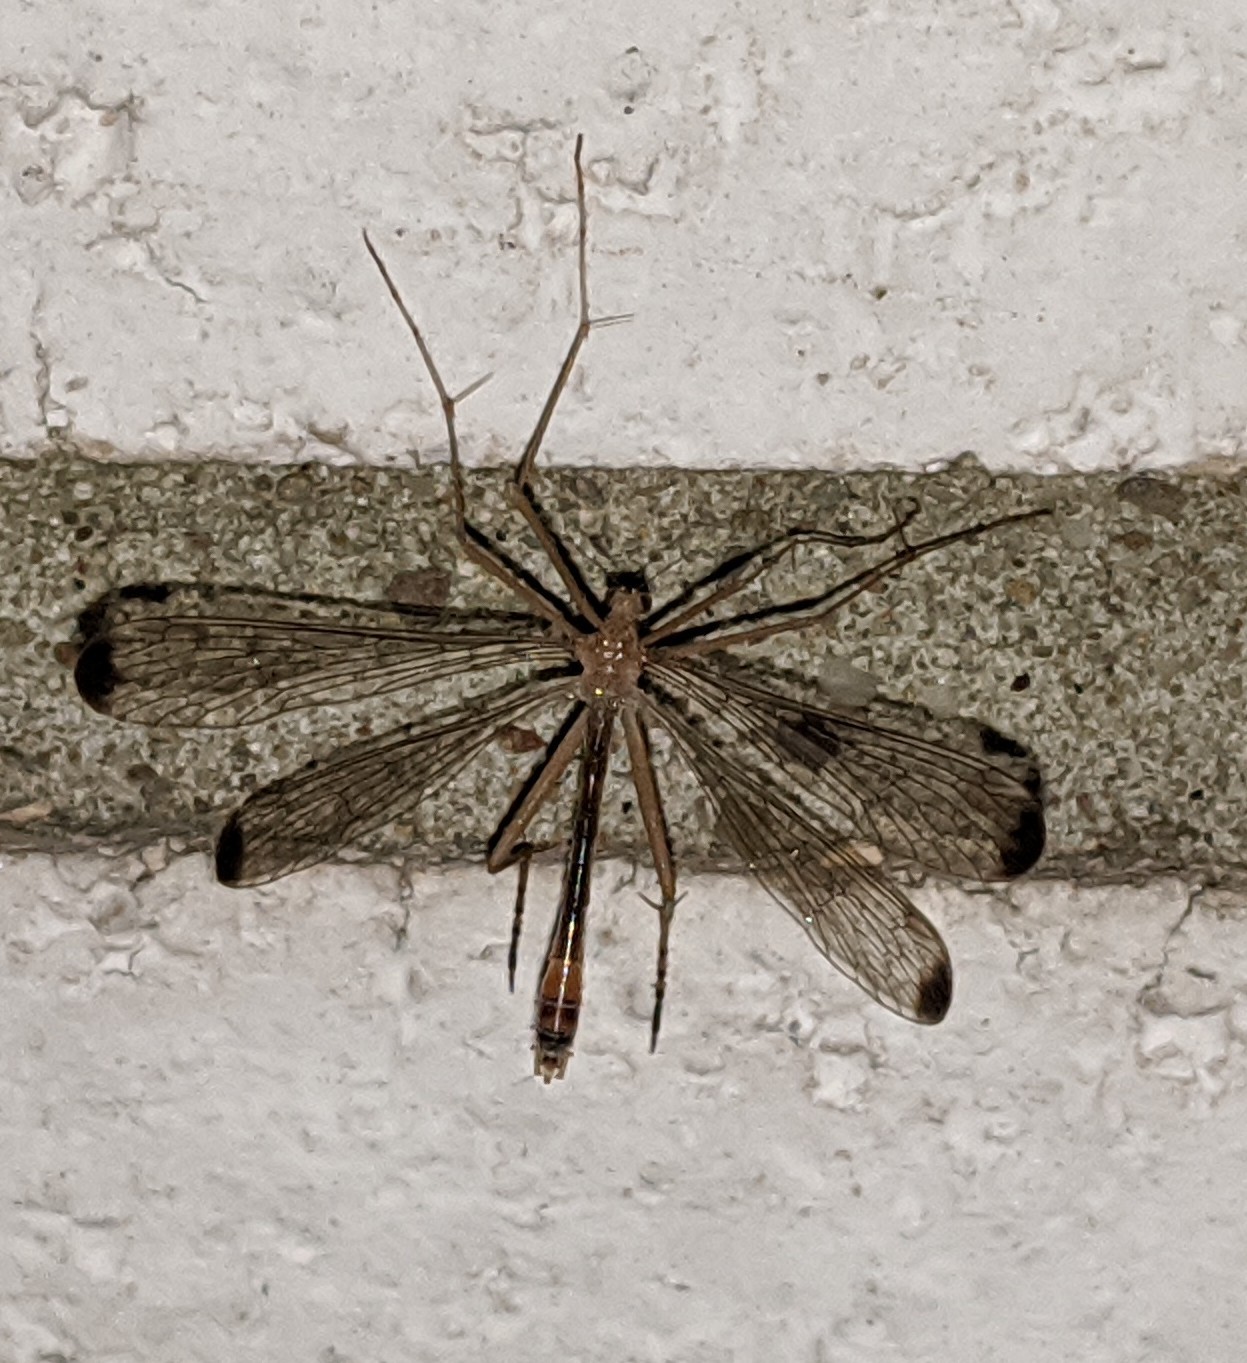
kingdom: Animalia
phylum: Arthropoda
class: Insecta
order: Mecoptera
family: Bittacidae
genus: Hylobittacus
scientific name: Hylobittacus apicalis
